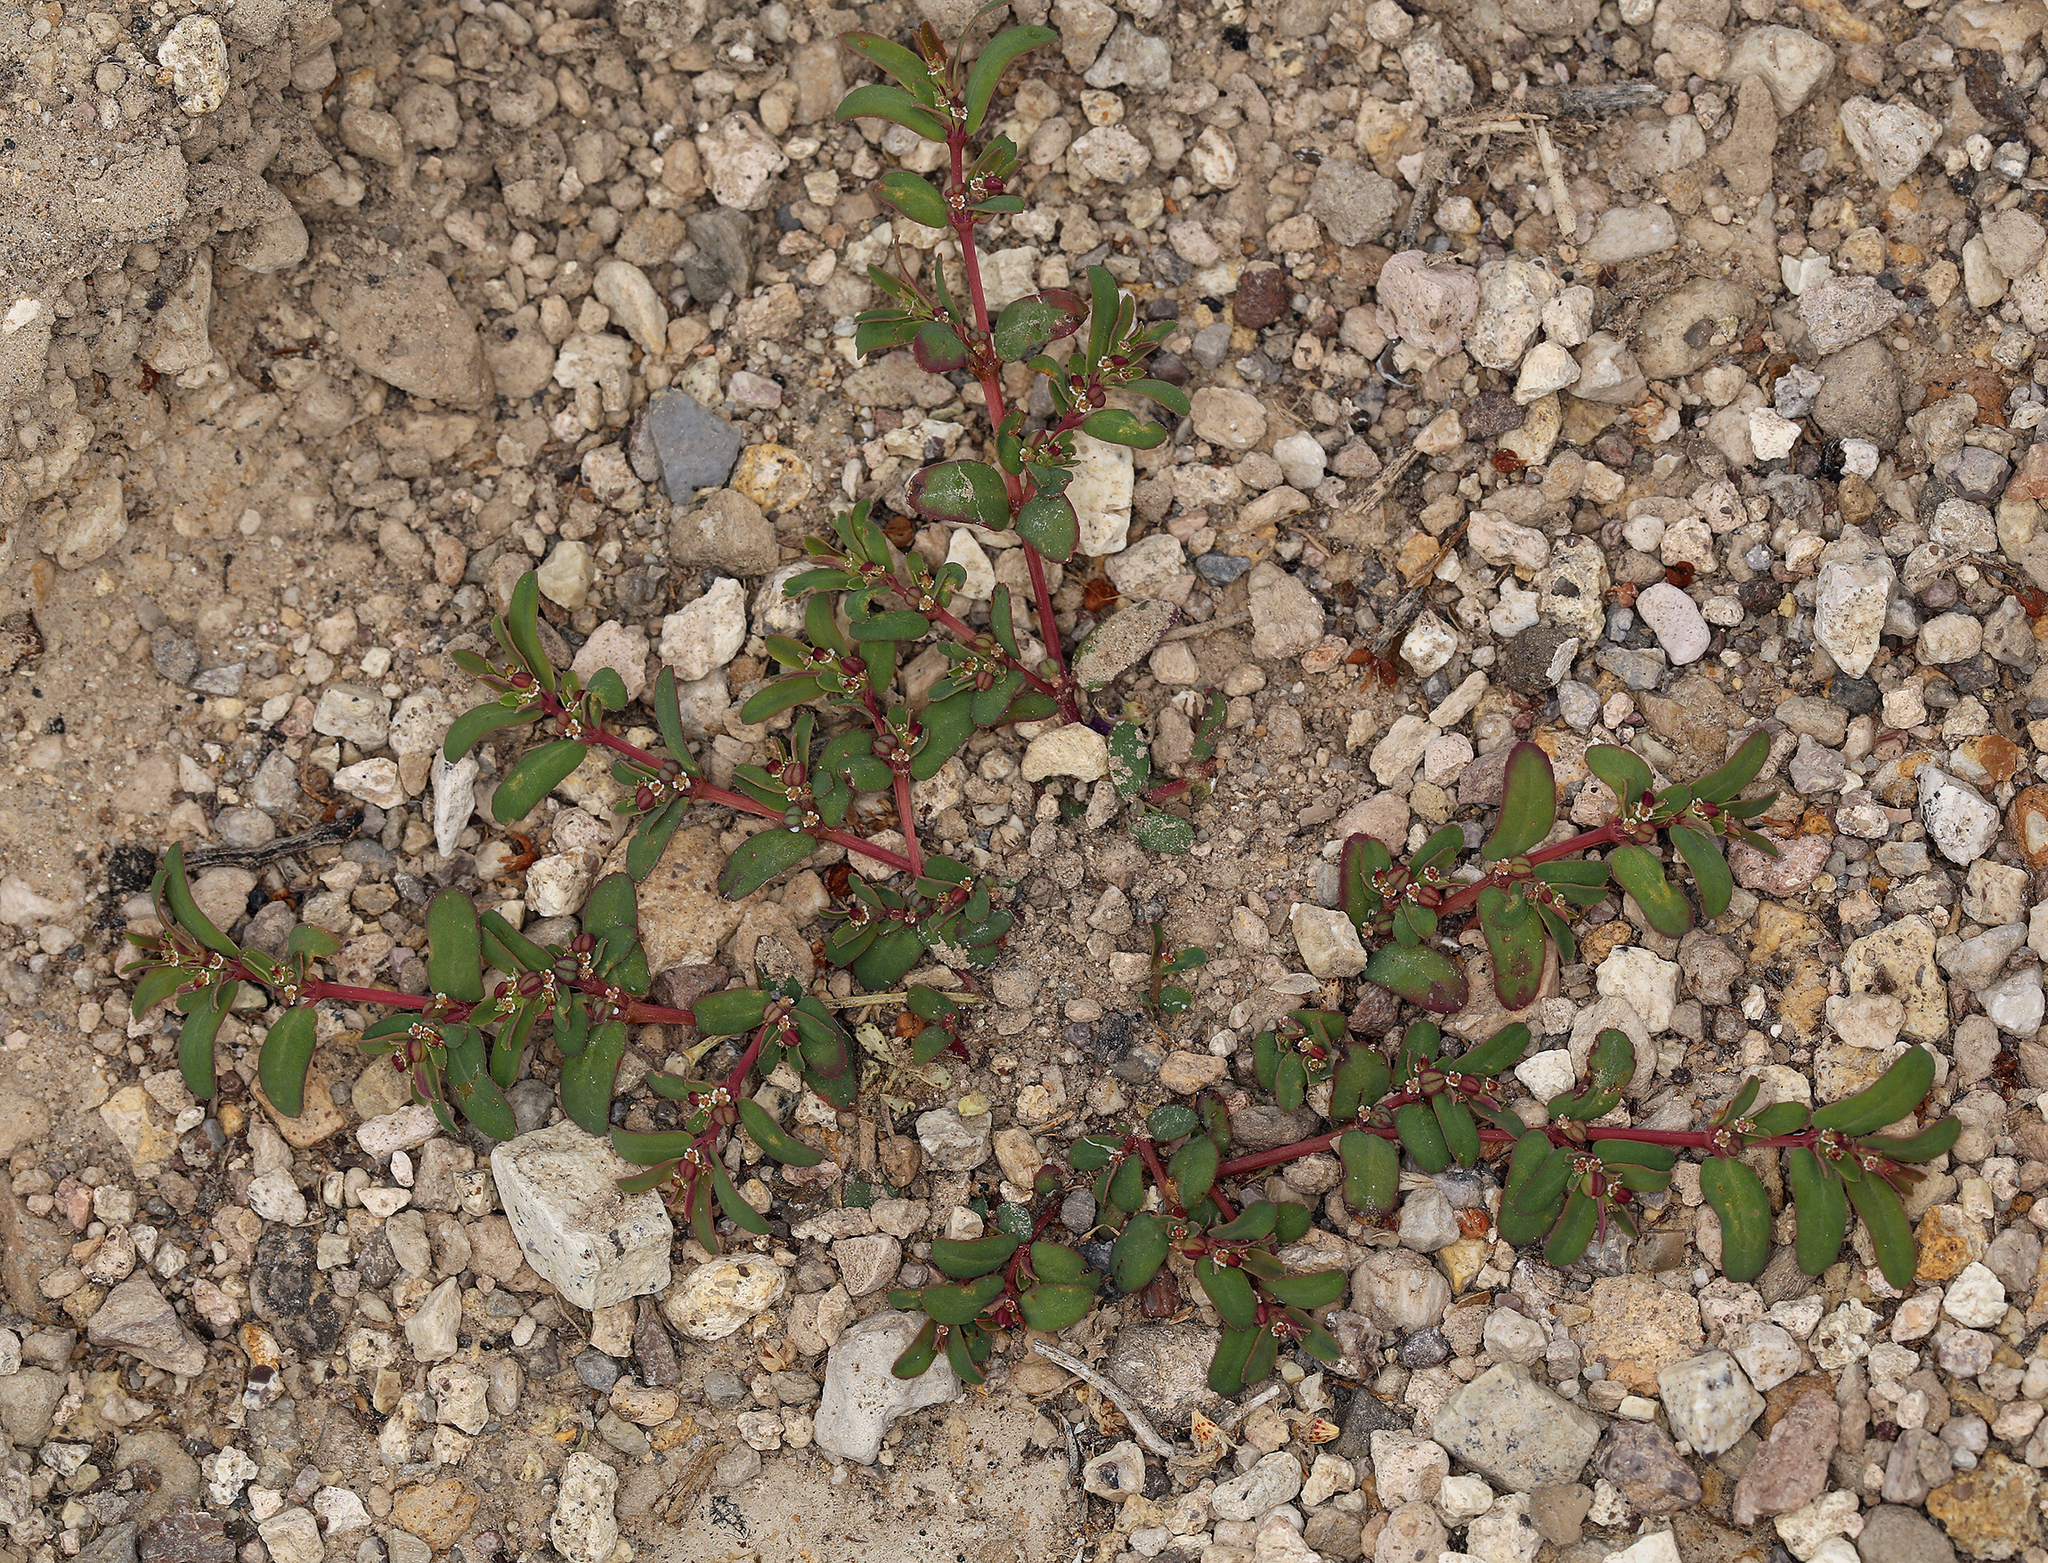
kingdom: Plantae
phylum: Tracheophyta
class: Magnoliopsida
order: Malpighiales
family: Euphorbiaceae
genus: Euphorbia
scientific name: Euphorbia serpillifolia
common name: Thyme-leaf spurge
